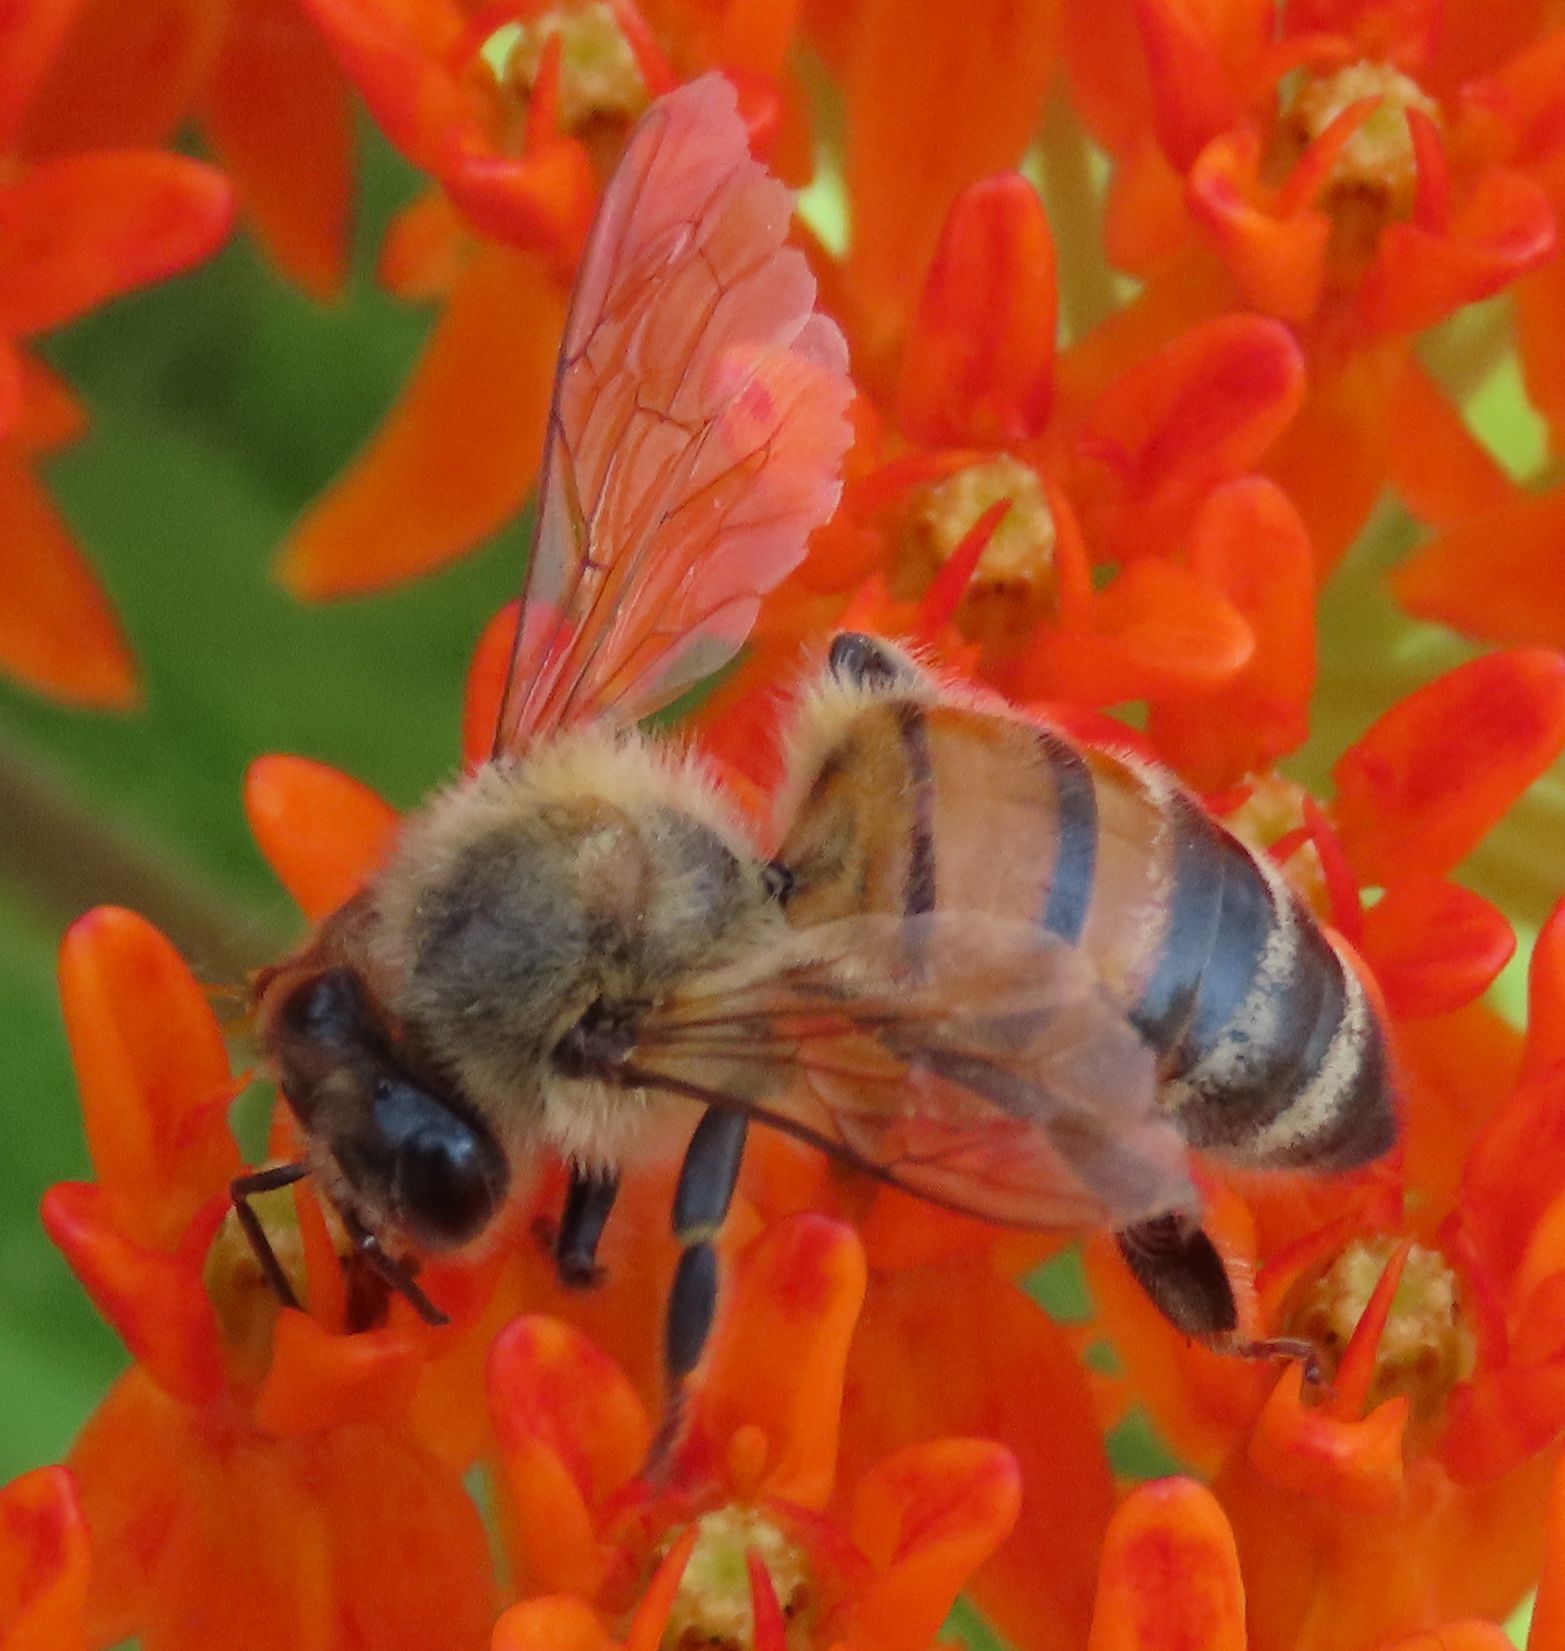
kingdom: Animalia
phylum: Arthropoda
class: Insecta
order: Hymenoptera
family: Apidae
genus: Apis
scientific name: Apis mellifera
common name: Honey bee
